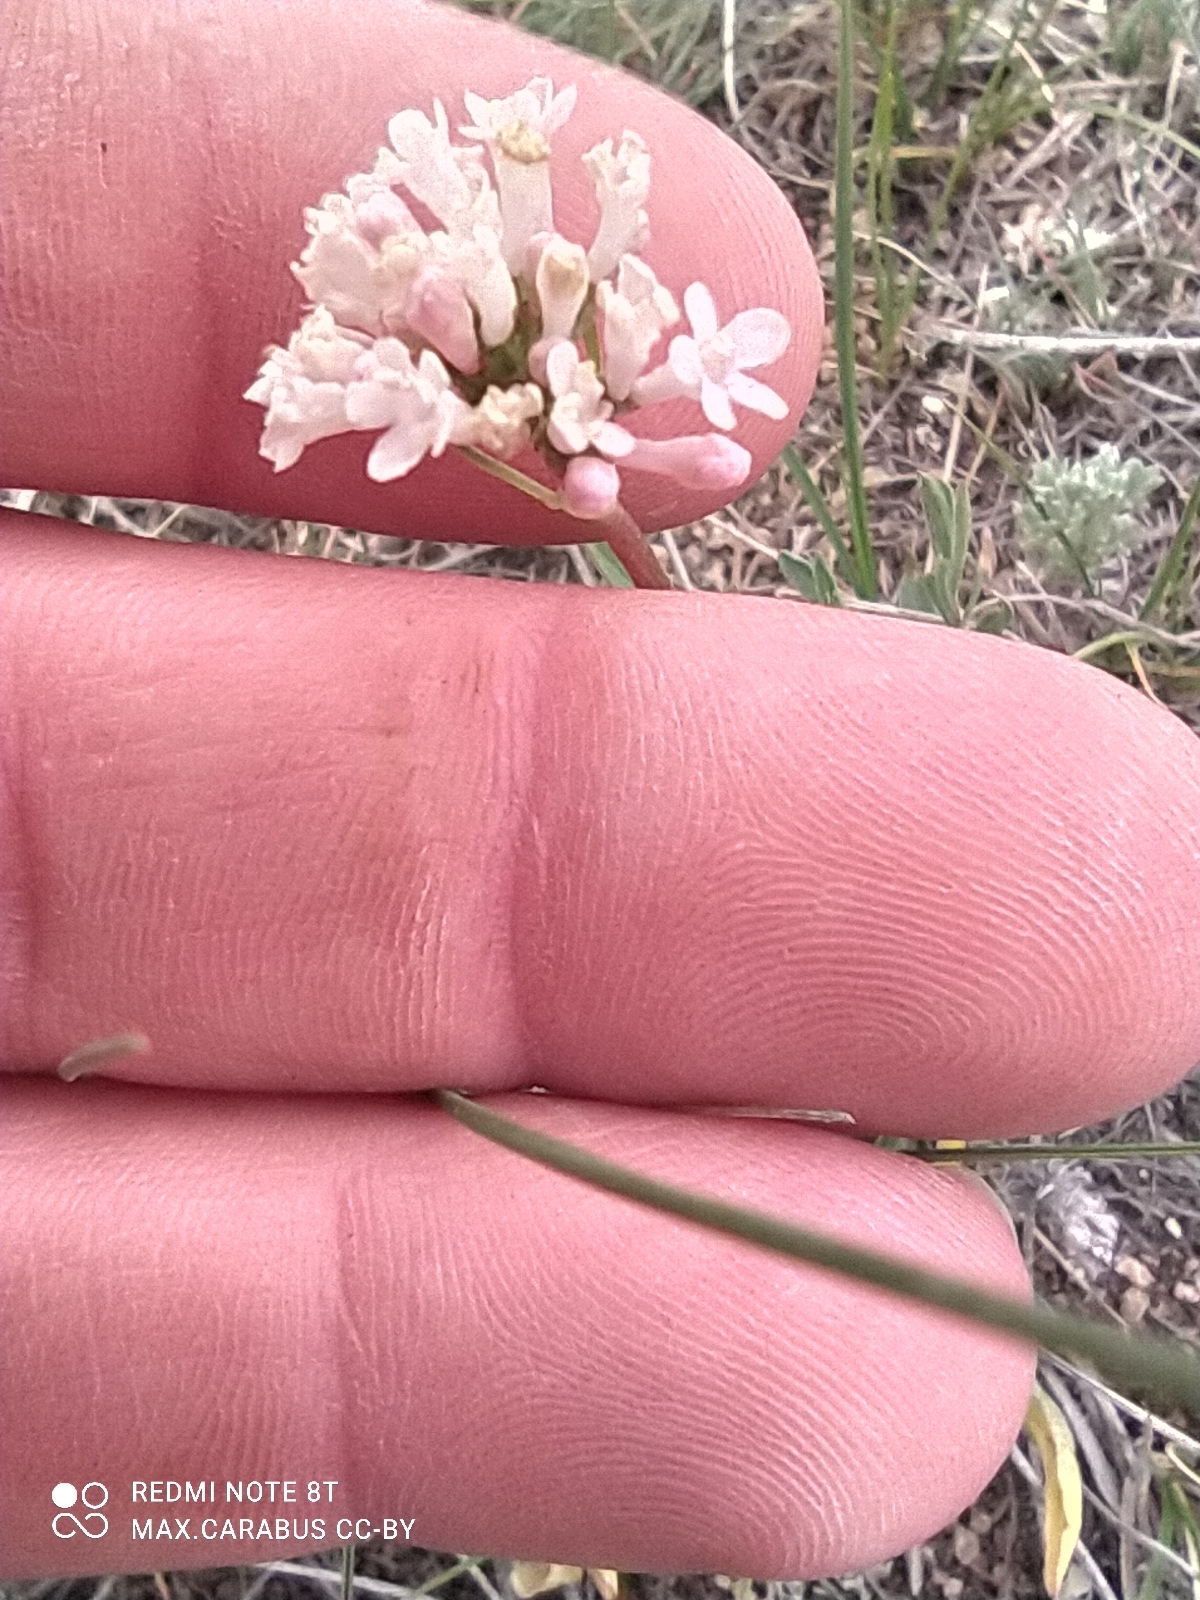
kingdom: Plantae
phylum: Tracheophyta
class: Magnoliopsida
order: Dipsacales
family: Caprifoliaceae
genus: Valeriana
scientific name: Valeriana tuberosa
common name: Tuberous valerian
